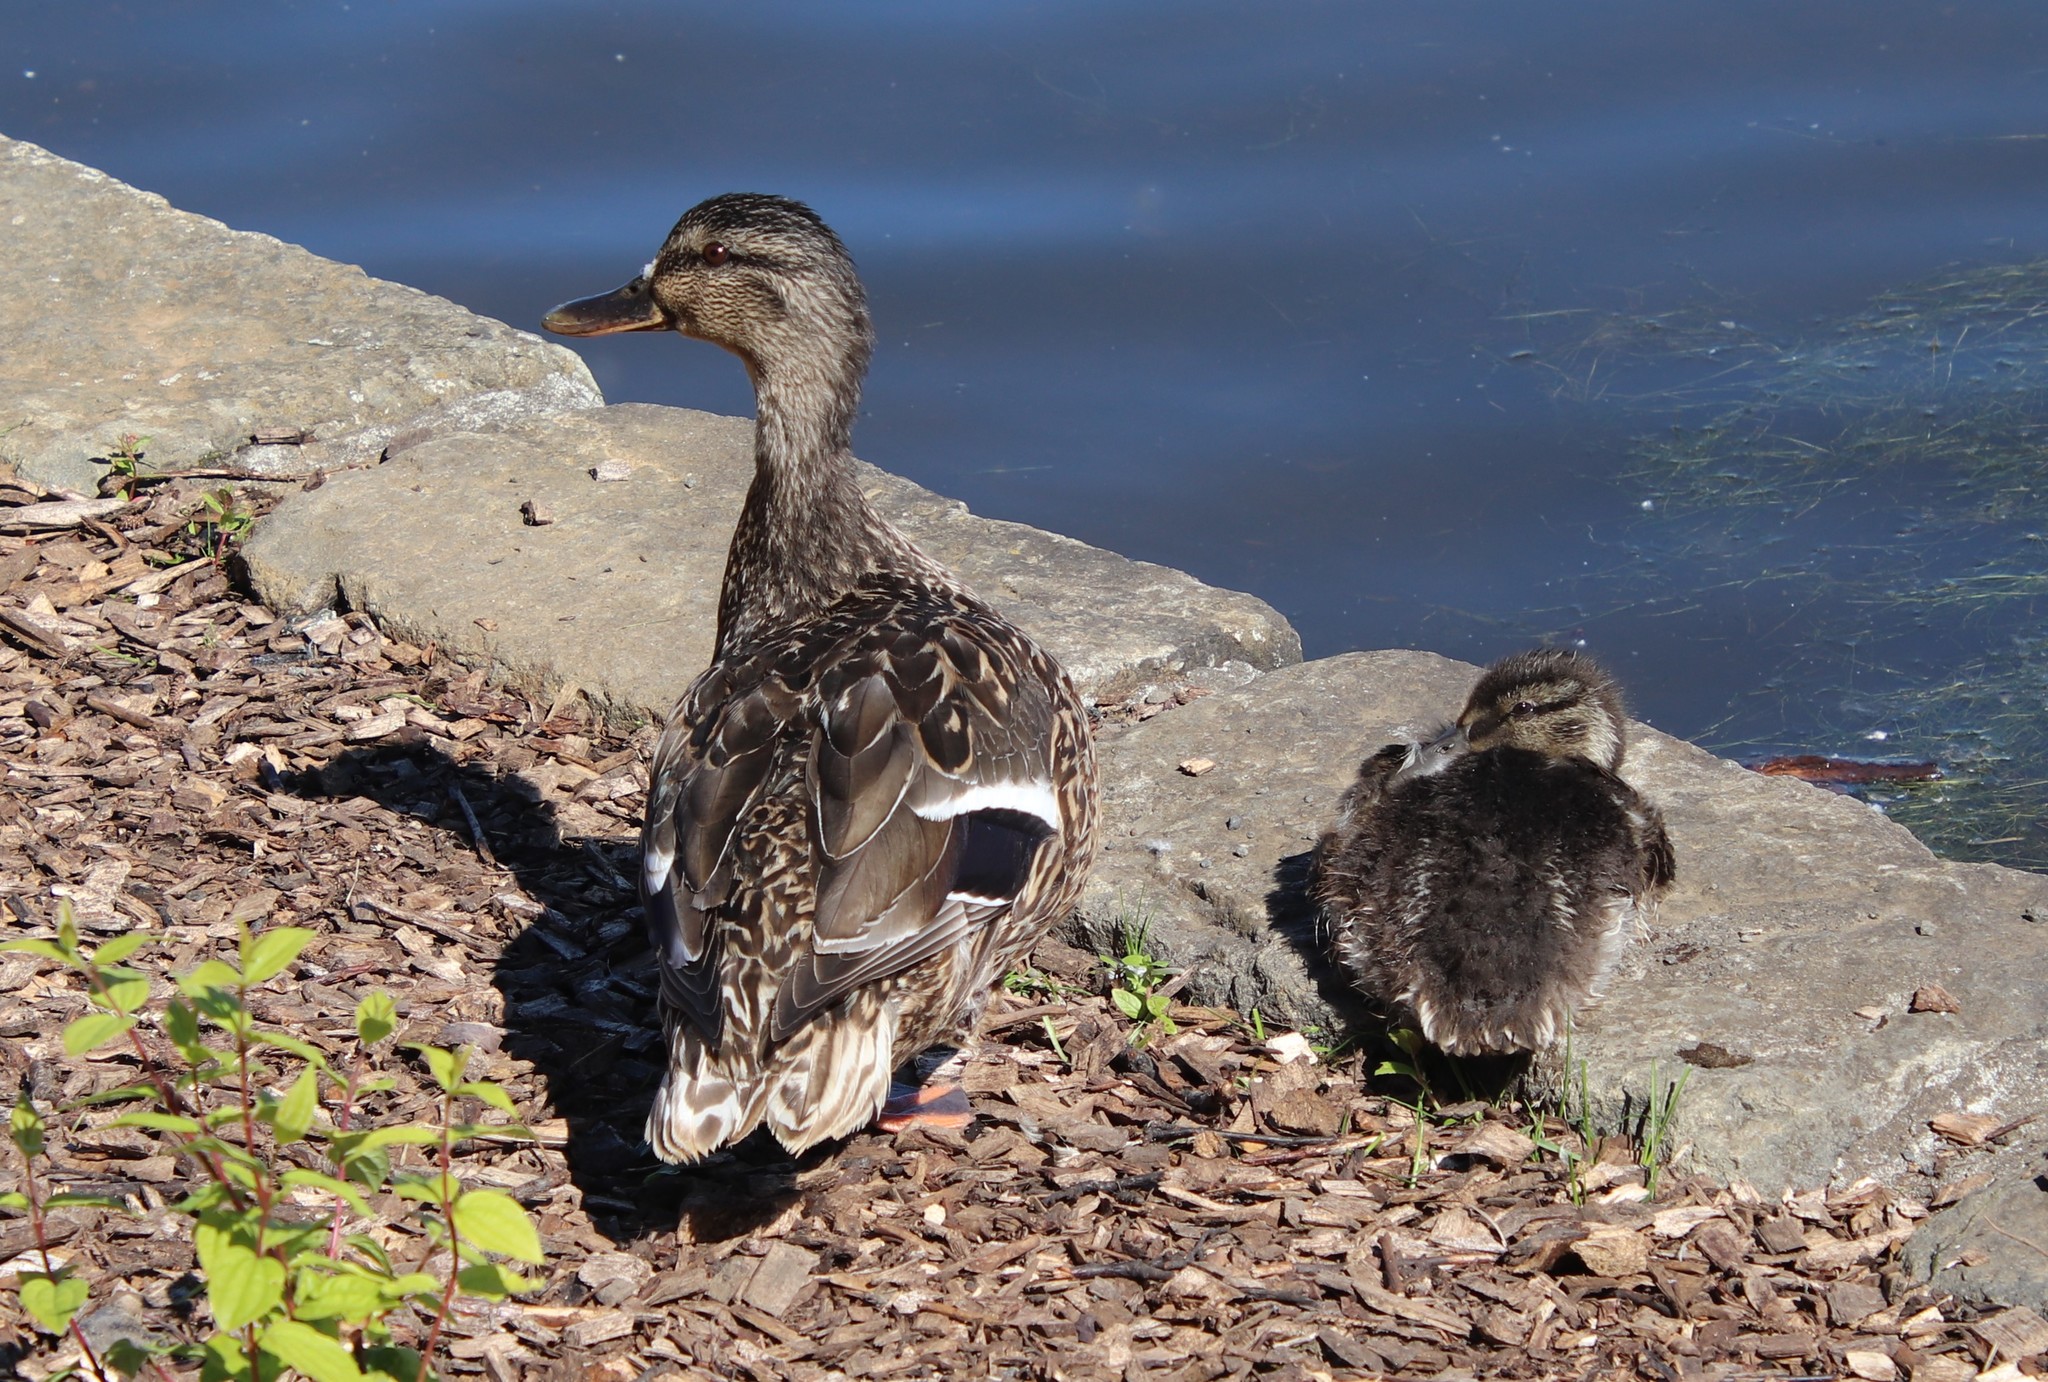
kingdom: Animalia
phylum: Chordata
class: Aves
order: Anseriformes
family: Anatidae
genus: Anas
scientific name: Anas platyrhynchos
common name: Mallard
